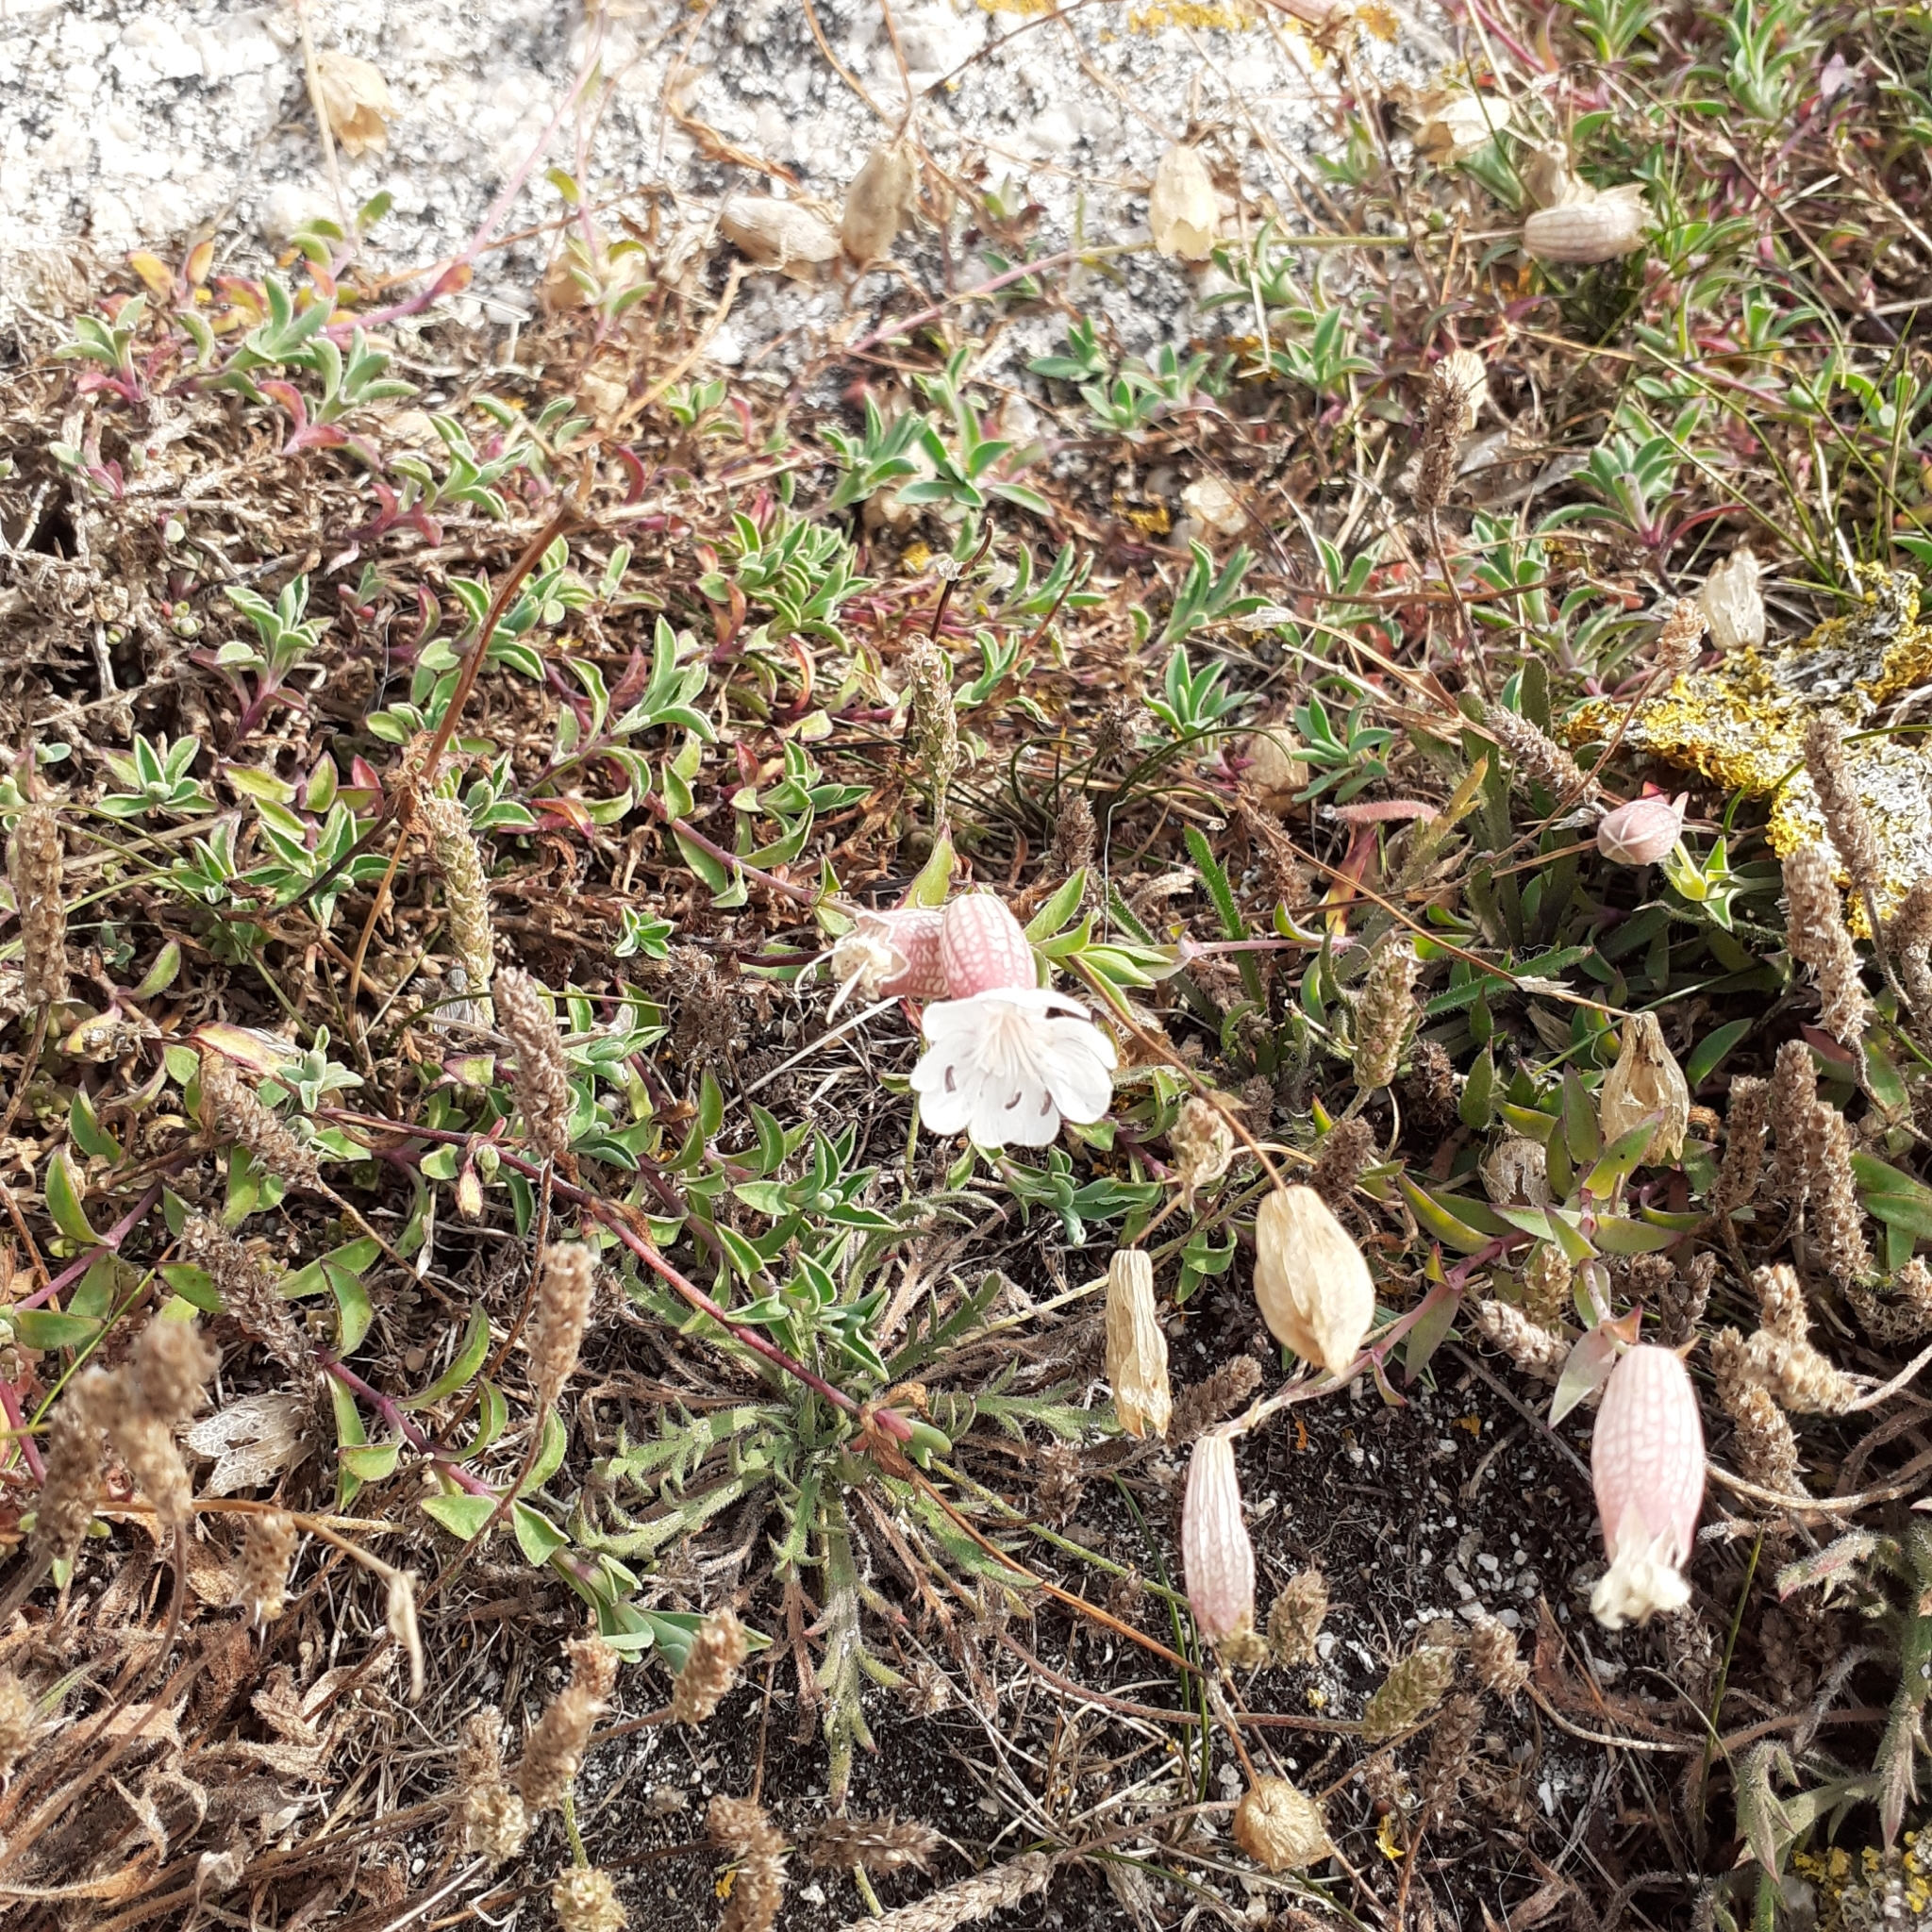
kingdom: Plantae
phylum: Tracheophyta
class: Magnoliopsida
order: Caryophyllales
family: Caryophyllaceae
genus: Silene
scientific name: Silene vulgaris
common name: Bladder campion
